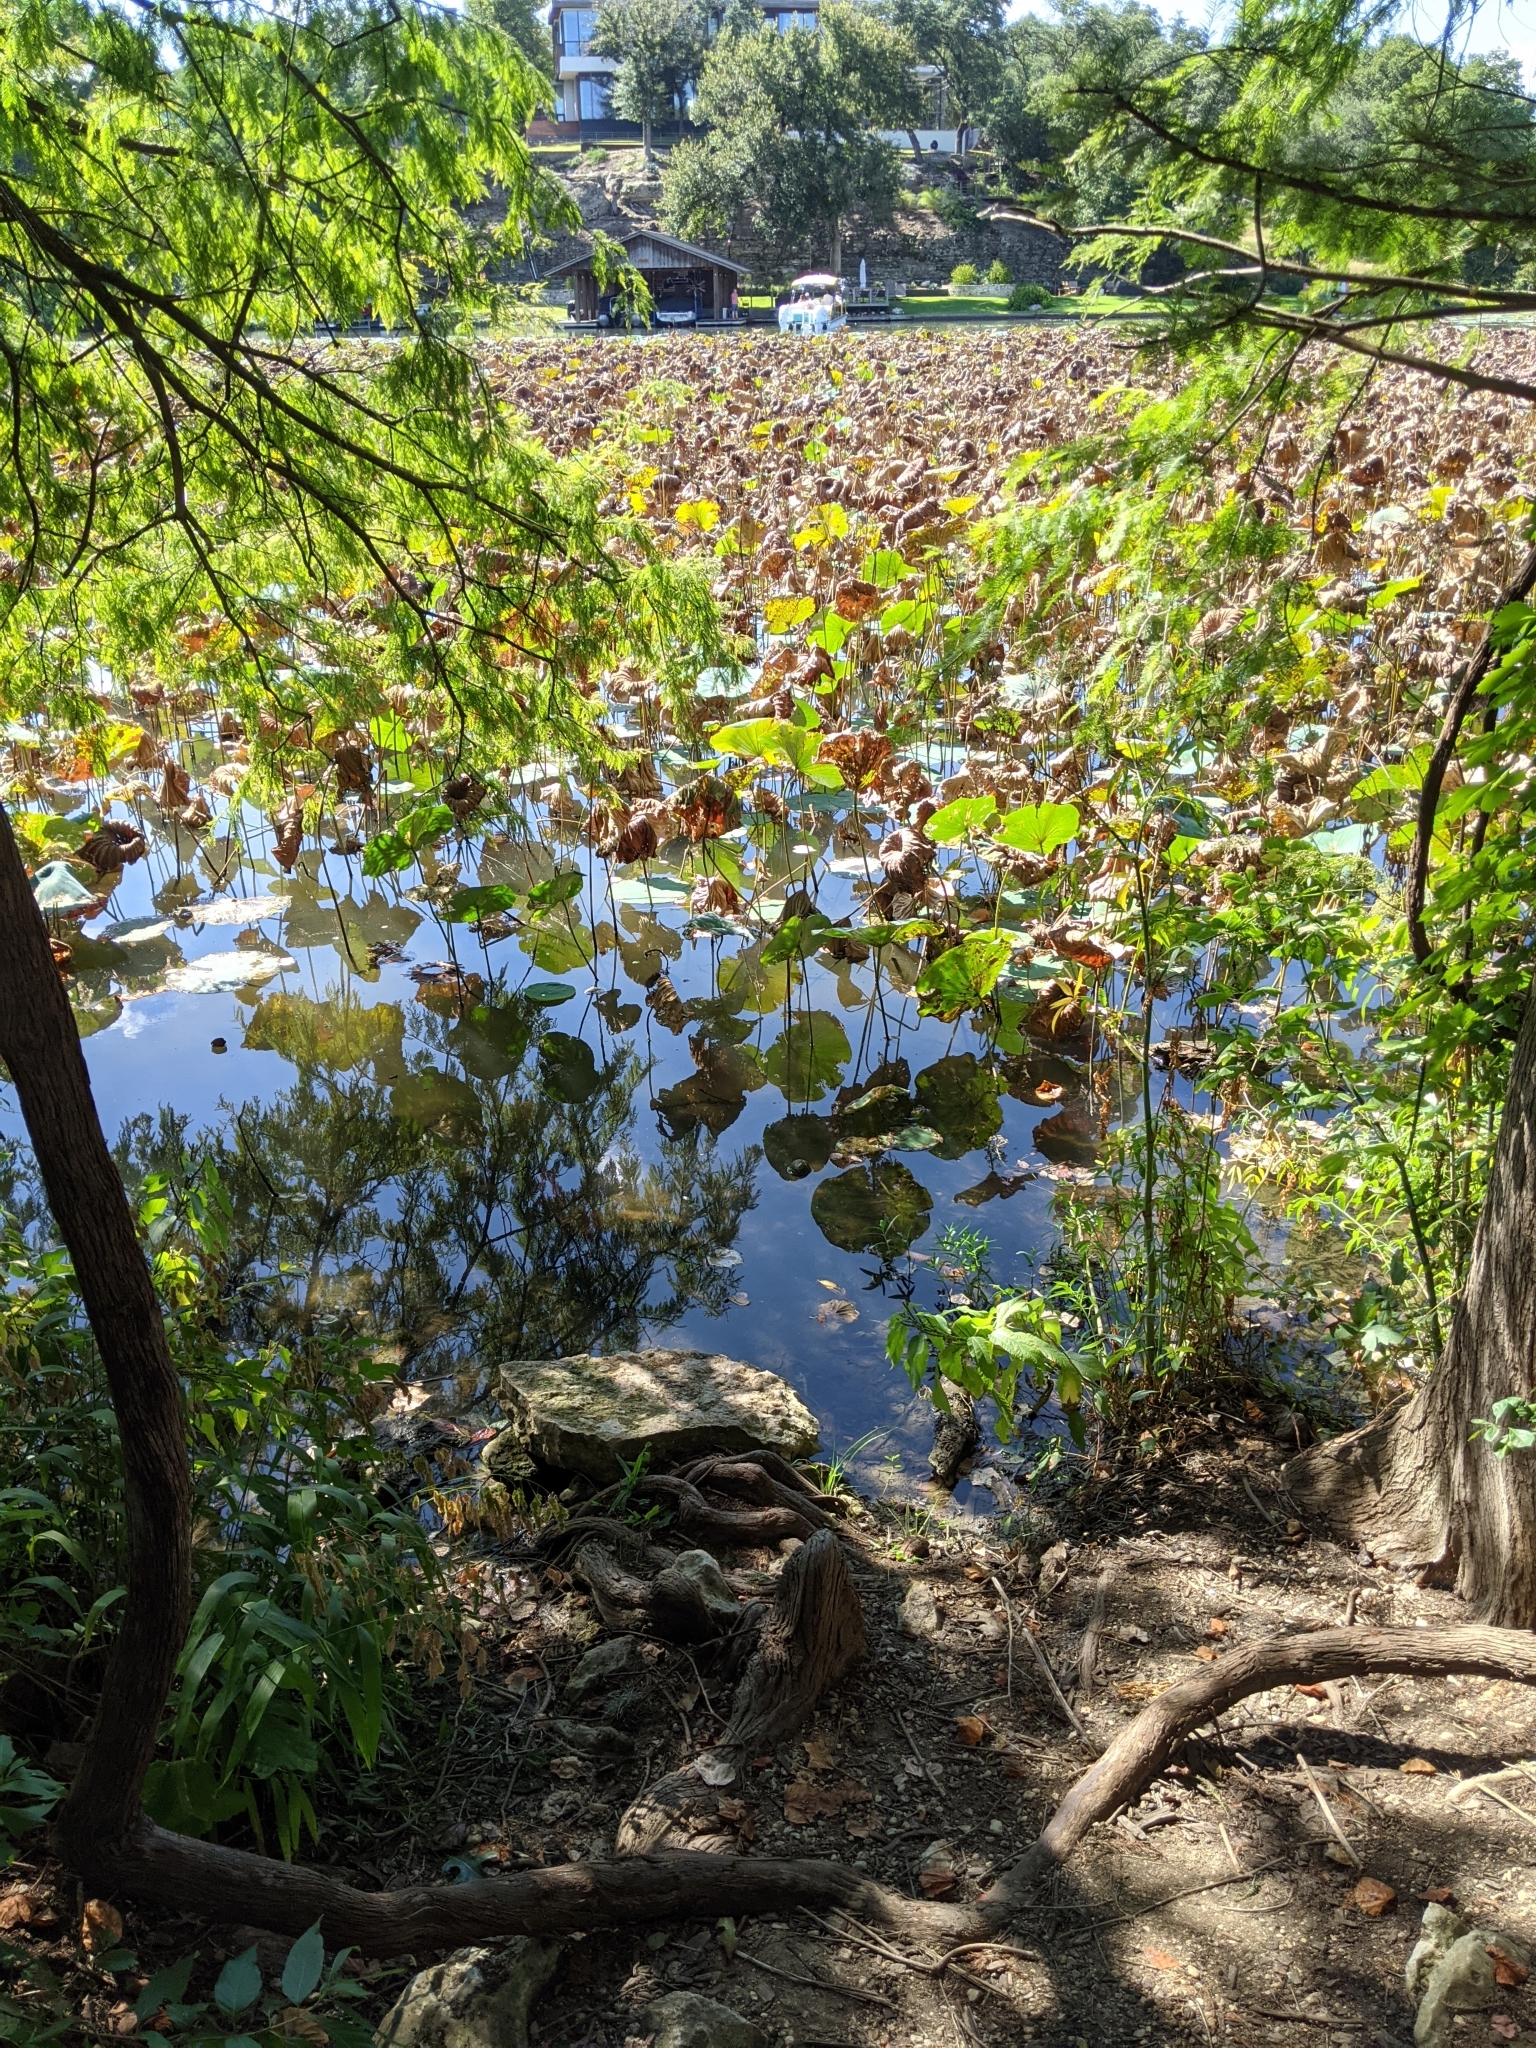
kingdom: Plantae
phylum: Tracheophyta
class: Magnoliopsida
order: Proteales
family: Nelumbonaceae
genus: Nelumbo
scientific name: Nelumbo lutea
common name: American lotus
